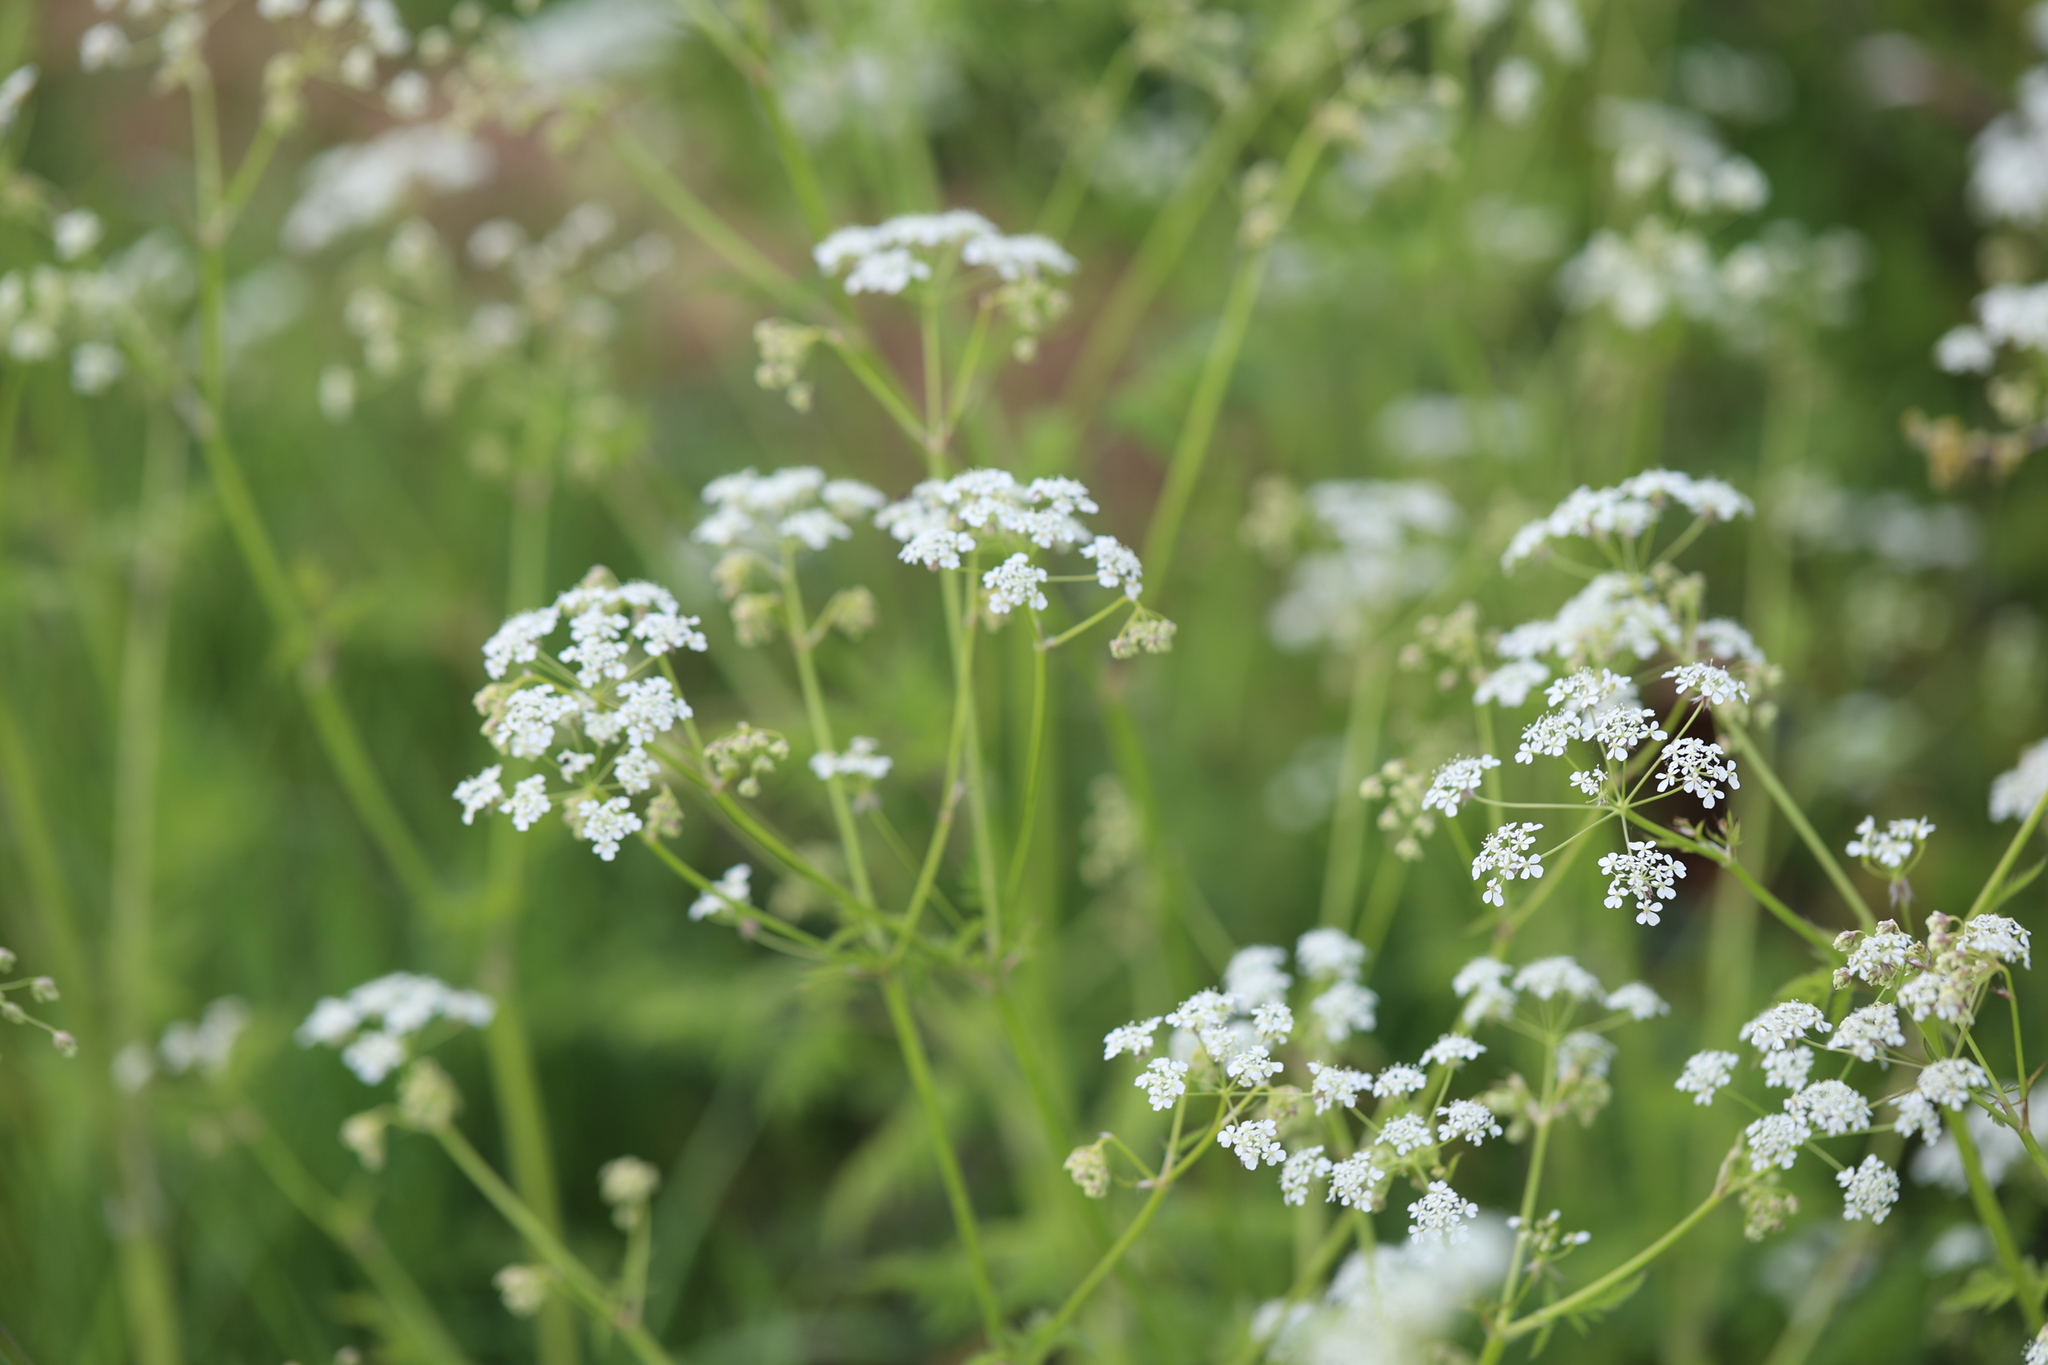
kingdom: Plantae
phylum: Tracheophyta
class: Magnoliopsida
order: Apiales
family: Apiaceae
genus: Anthriscus
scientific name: Anthriscus sylvestris
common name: Cow parsley
